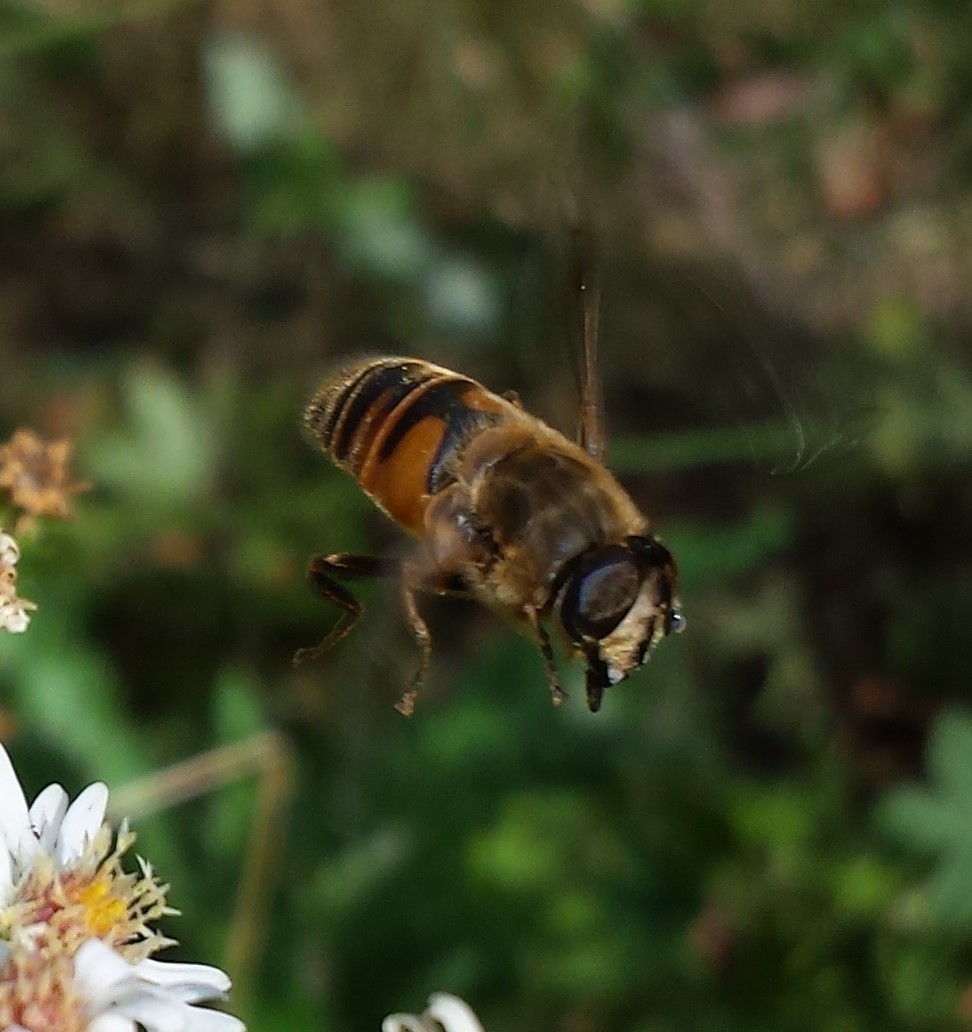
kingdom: Animalia
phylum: Arthropoda
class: Insecta
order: Diptera
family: Syrphidae
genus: Eristalis
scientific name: Eristalis tenax
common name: Drone fly
